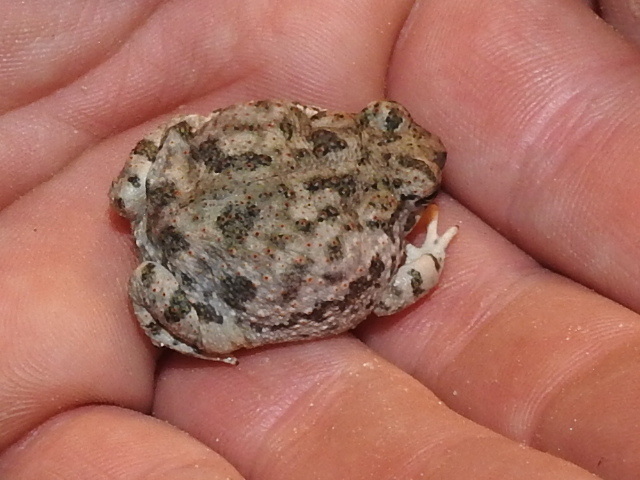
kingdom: Animalia
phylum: Chordata
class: Amphibia
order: Anura
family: Bufonidae
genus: Anaxyrus
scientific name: Anaxyrus speciosus
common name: Texas toad
